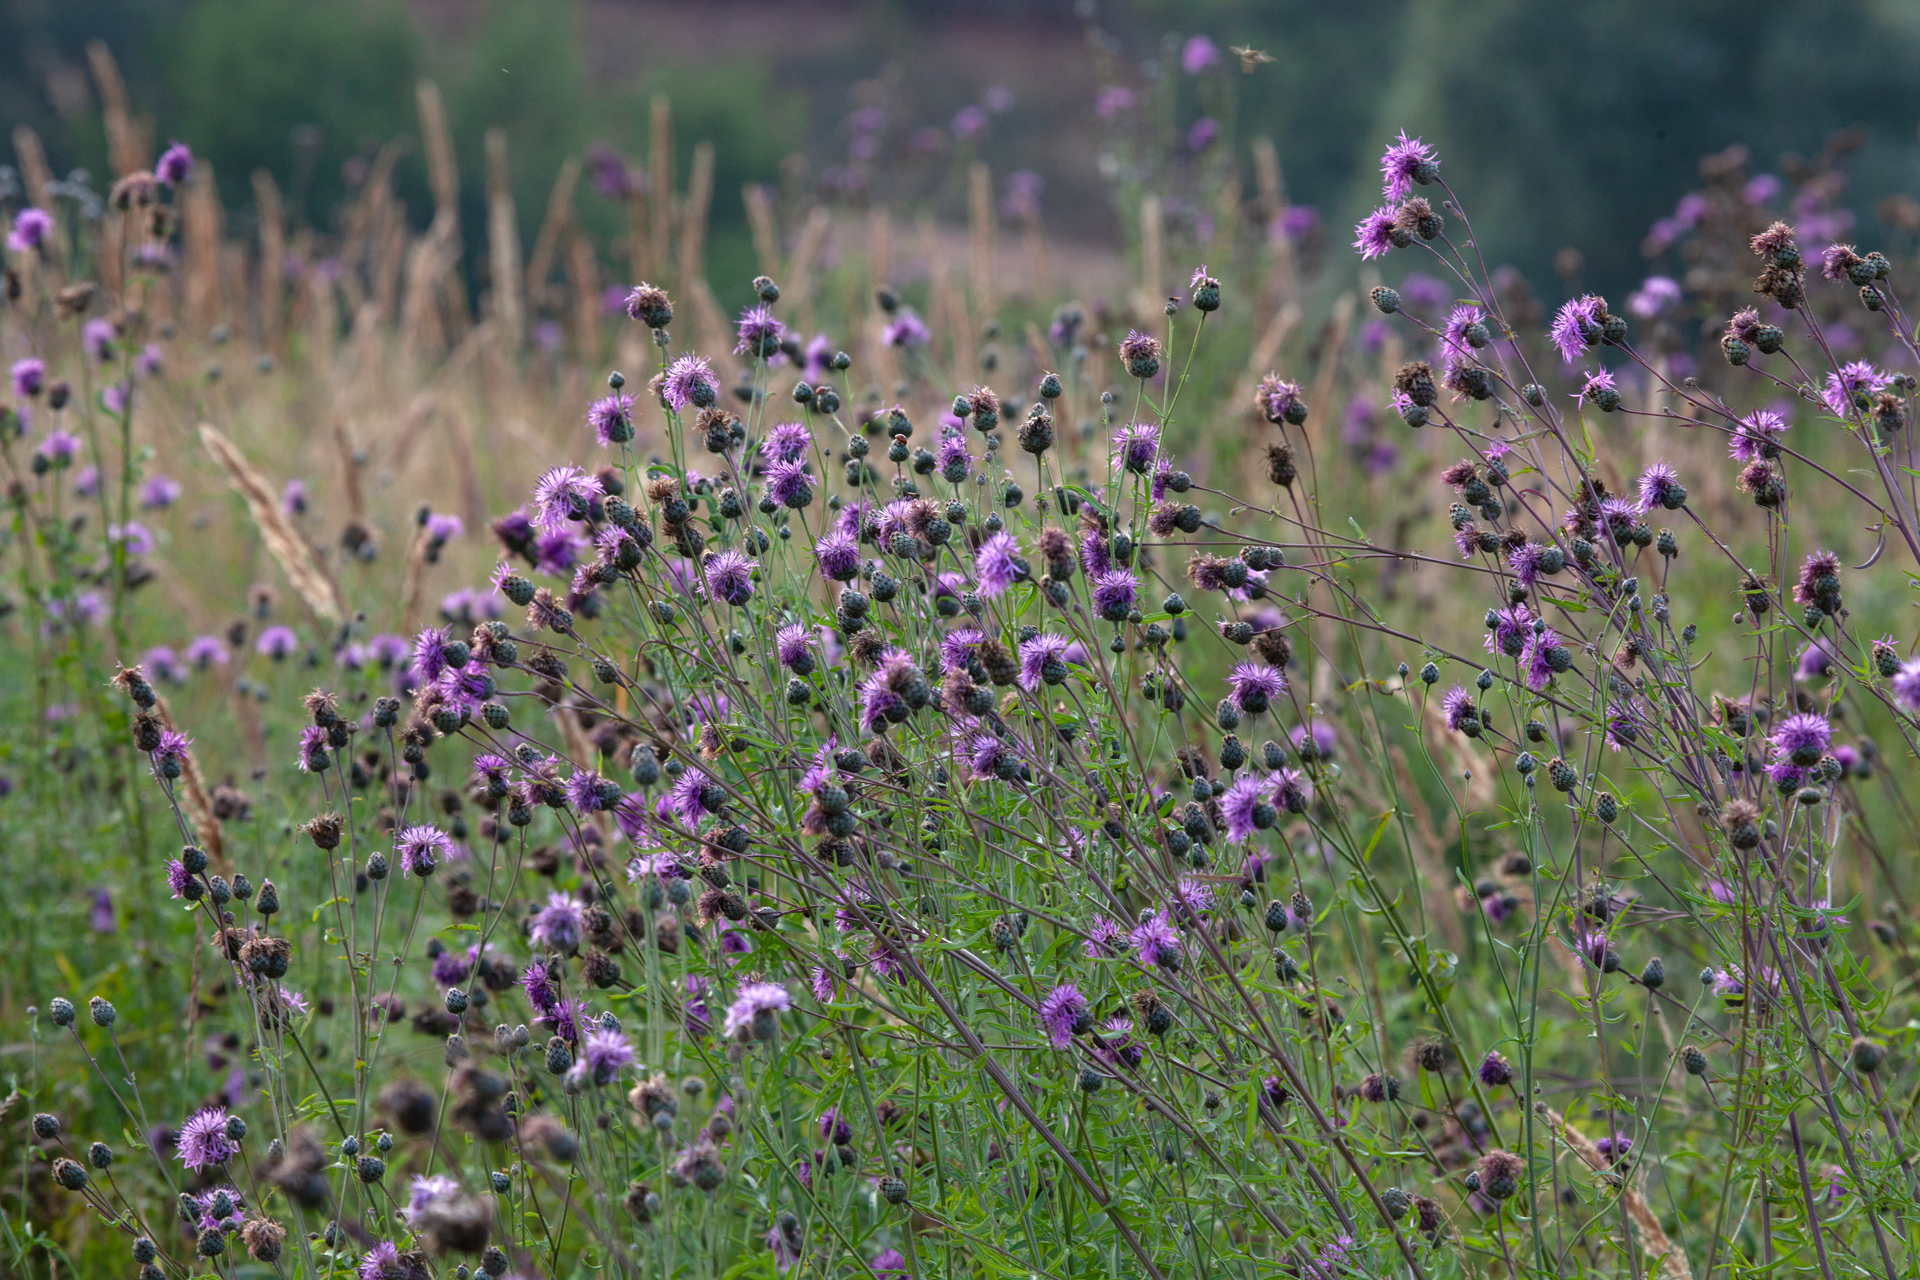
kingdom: Plantae
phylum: Tracheophyta
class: Magnoliopsida
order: Asterales
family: Asteraceae
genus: Centaurea
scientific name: Centaurea scabiosa
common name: Greater knapweed
